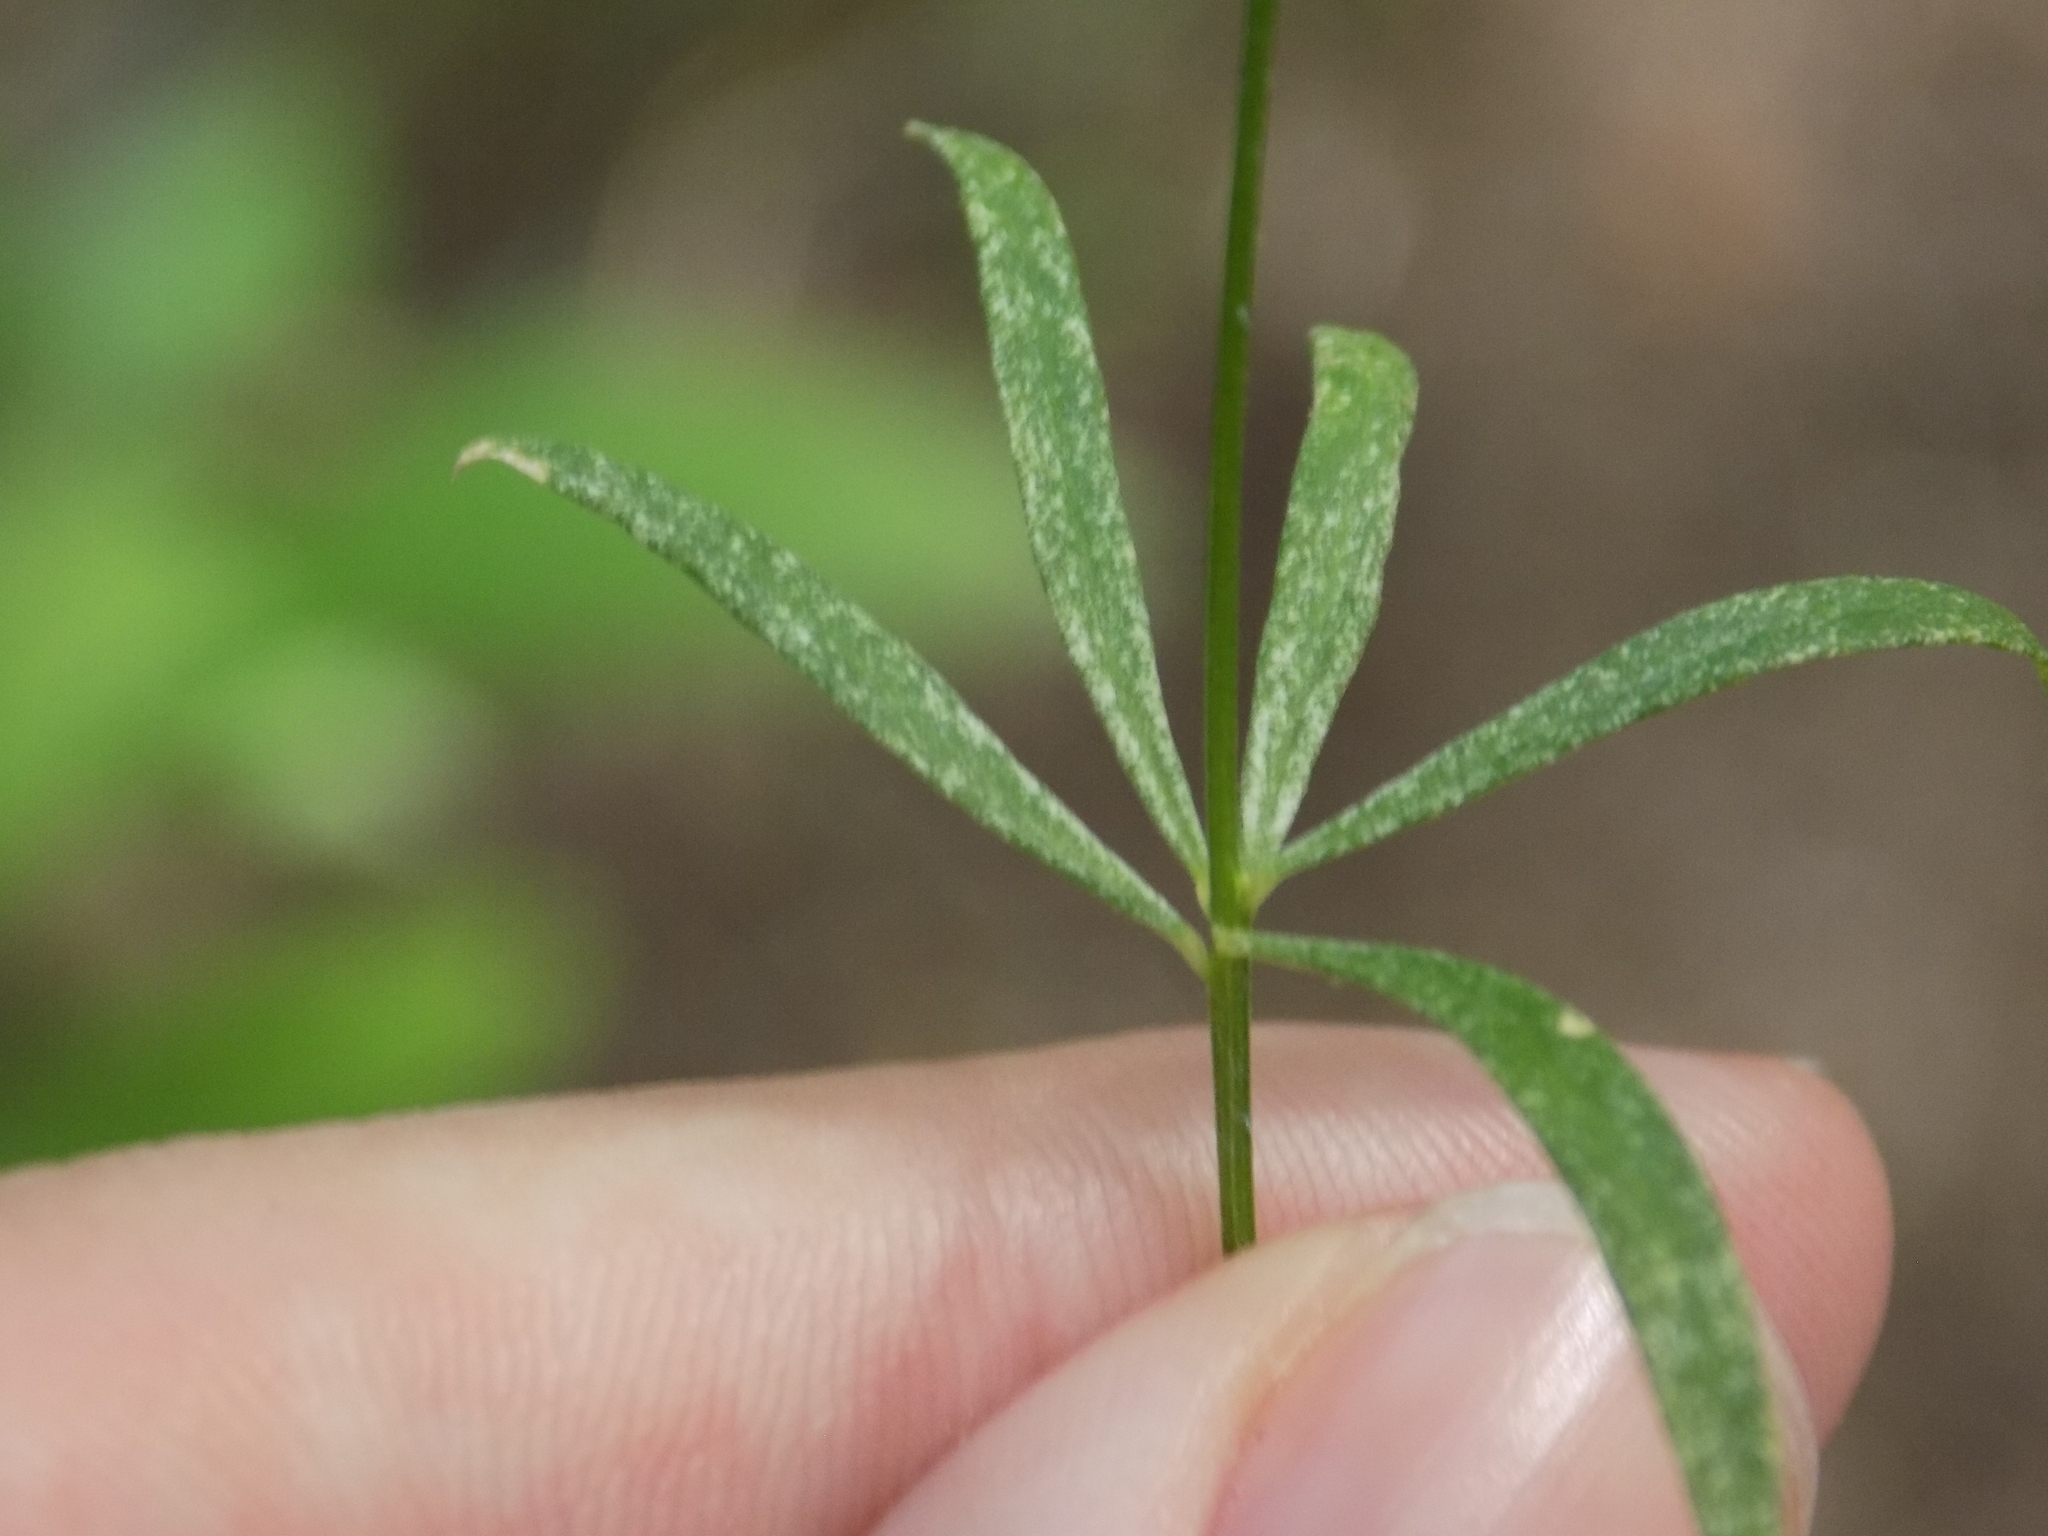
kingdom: Plantae
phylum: Tracheophyta
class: Magnoliopsida
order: Fabales
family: Polygalaceae
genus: Polygala
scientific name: Polygala ambigua
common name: Alternate milkwort
